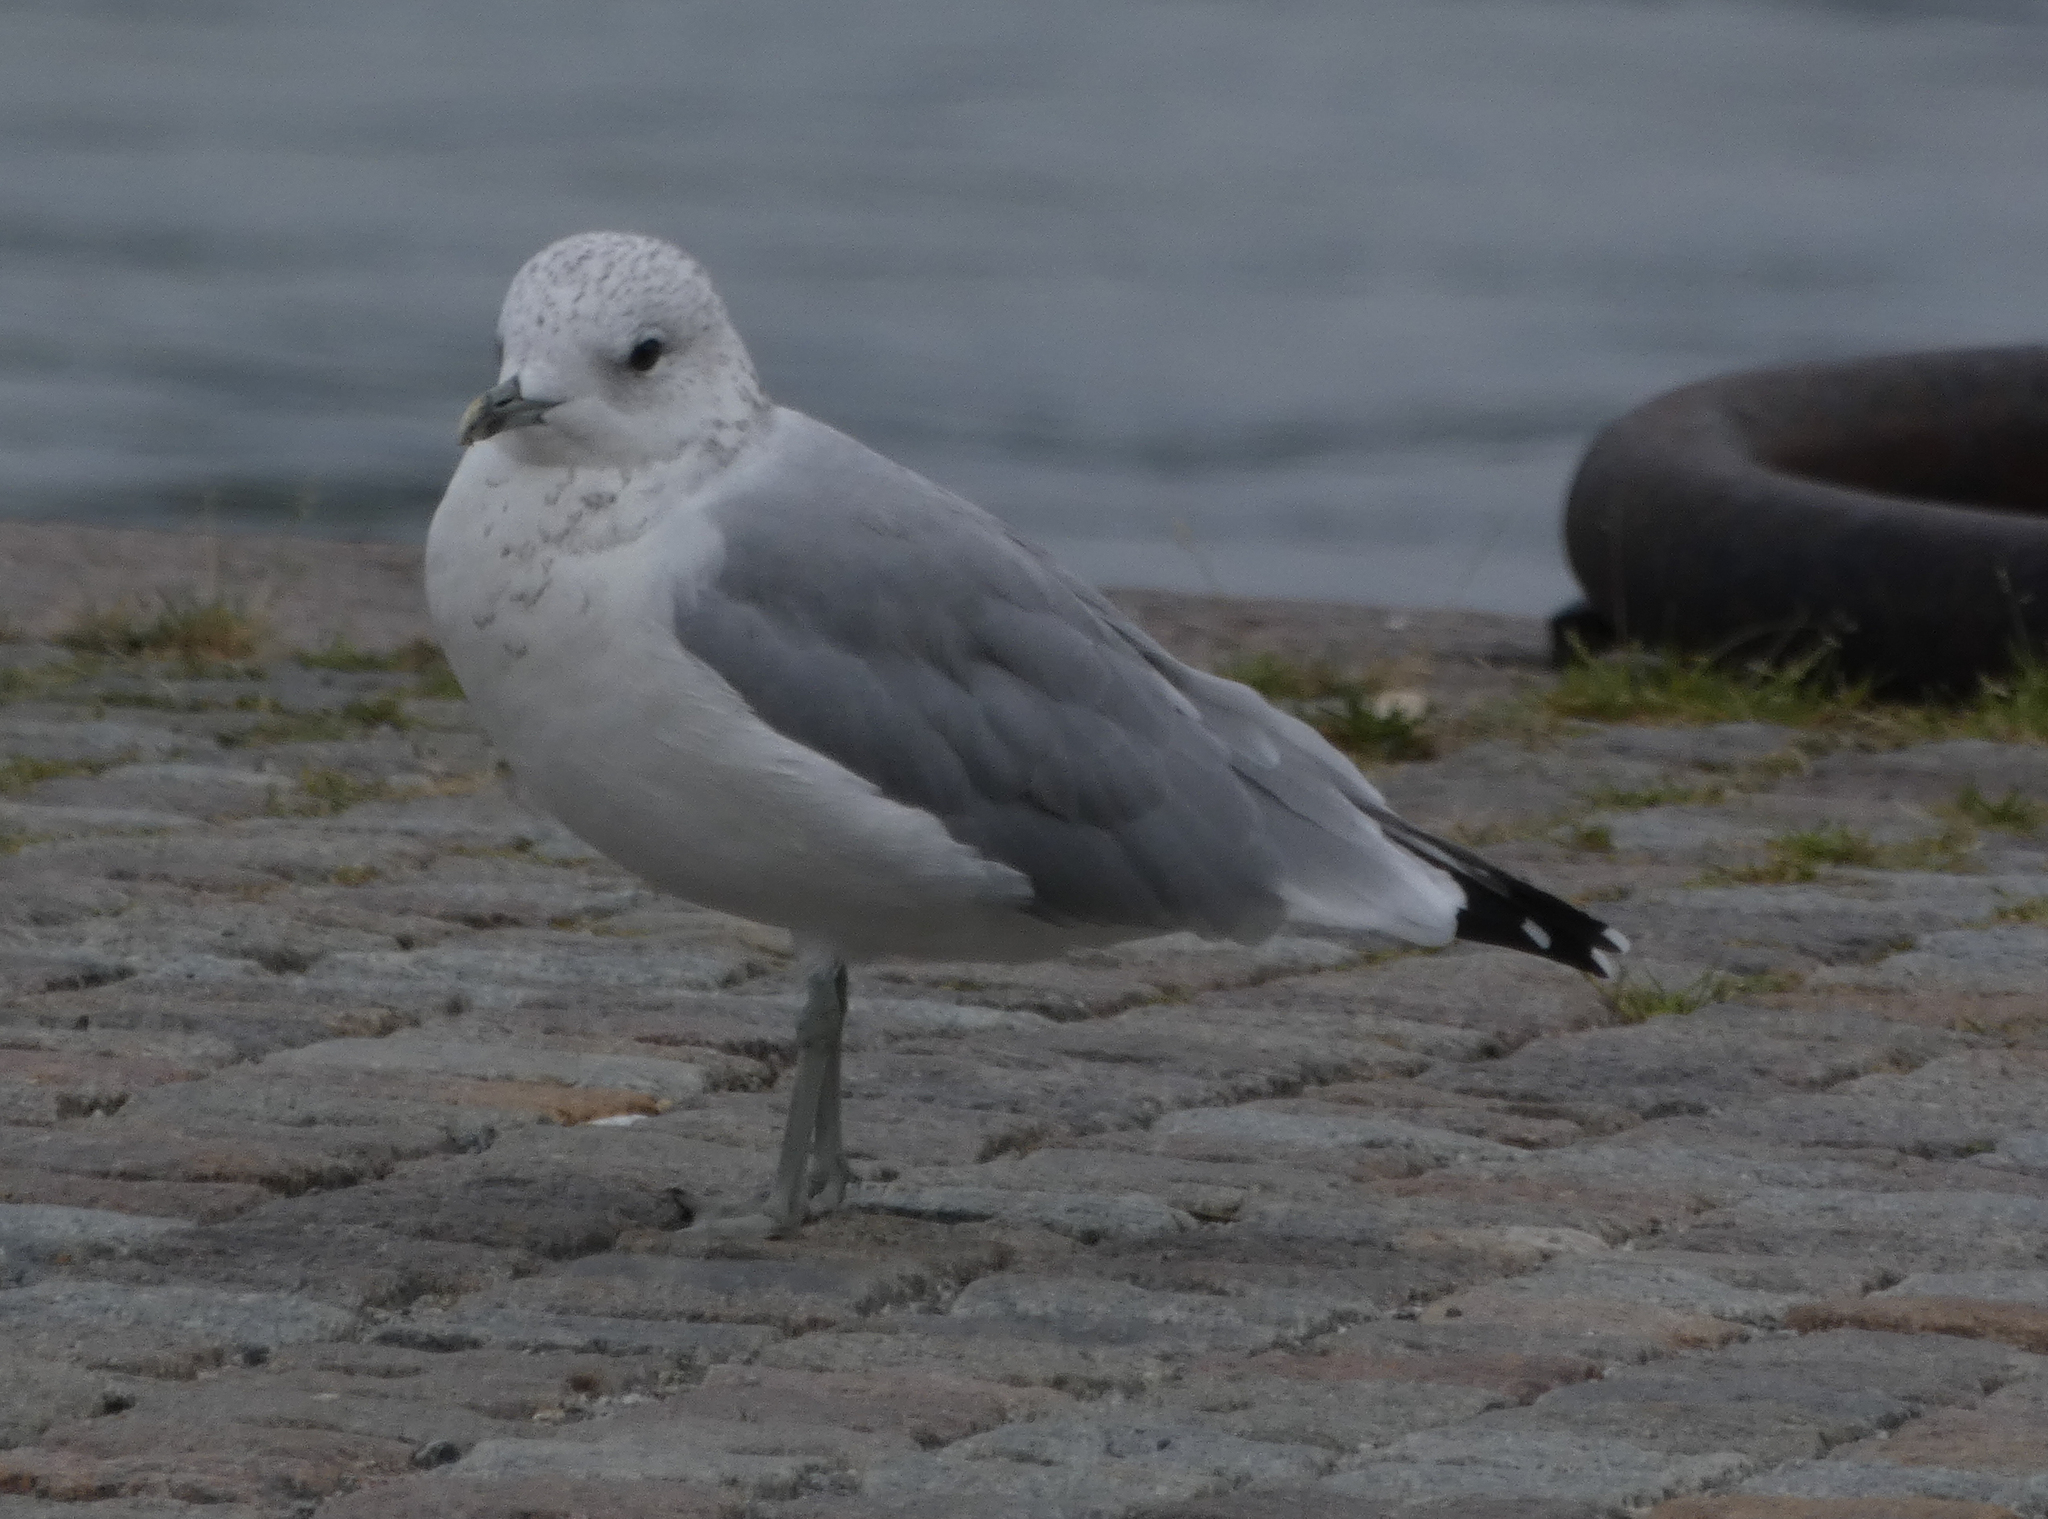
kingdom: Animalia
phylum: Chordata
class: Aves
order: Charadriiformes
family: Laridae
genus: Larus
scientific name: Larus canus
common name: Mew gull
